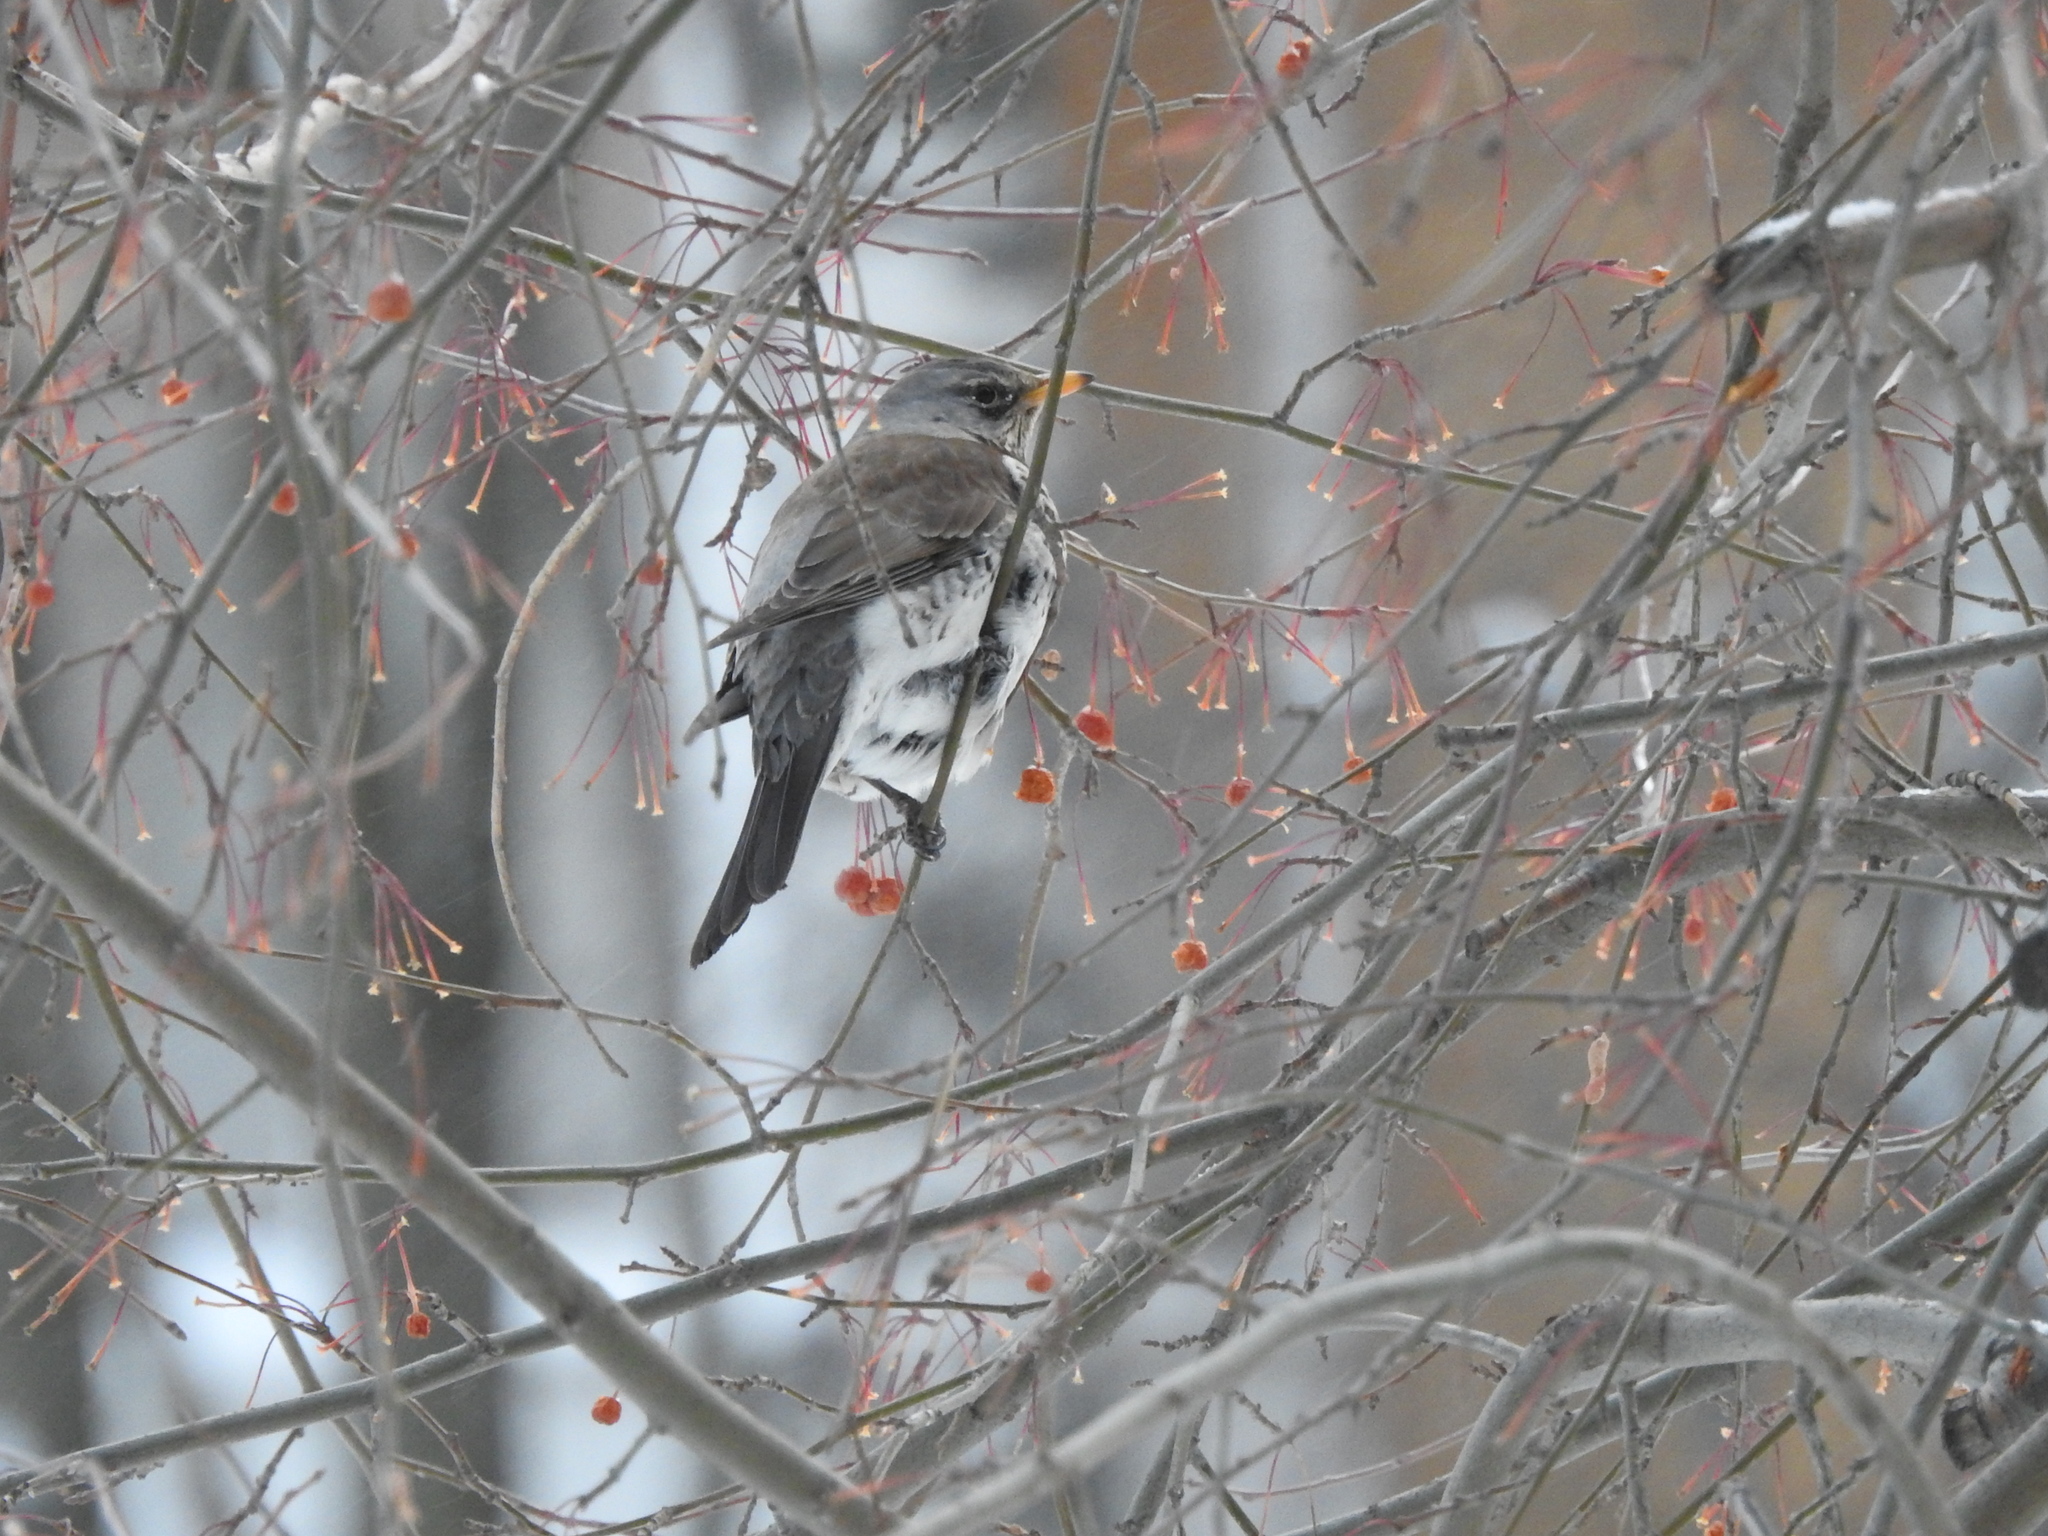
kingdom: Animalia
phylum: Chordata
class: Aves
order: Passeriformes
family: Turdidae
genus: Turdus
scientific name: Turdus pilaris
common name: Fieldfare
